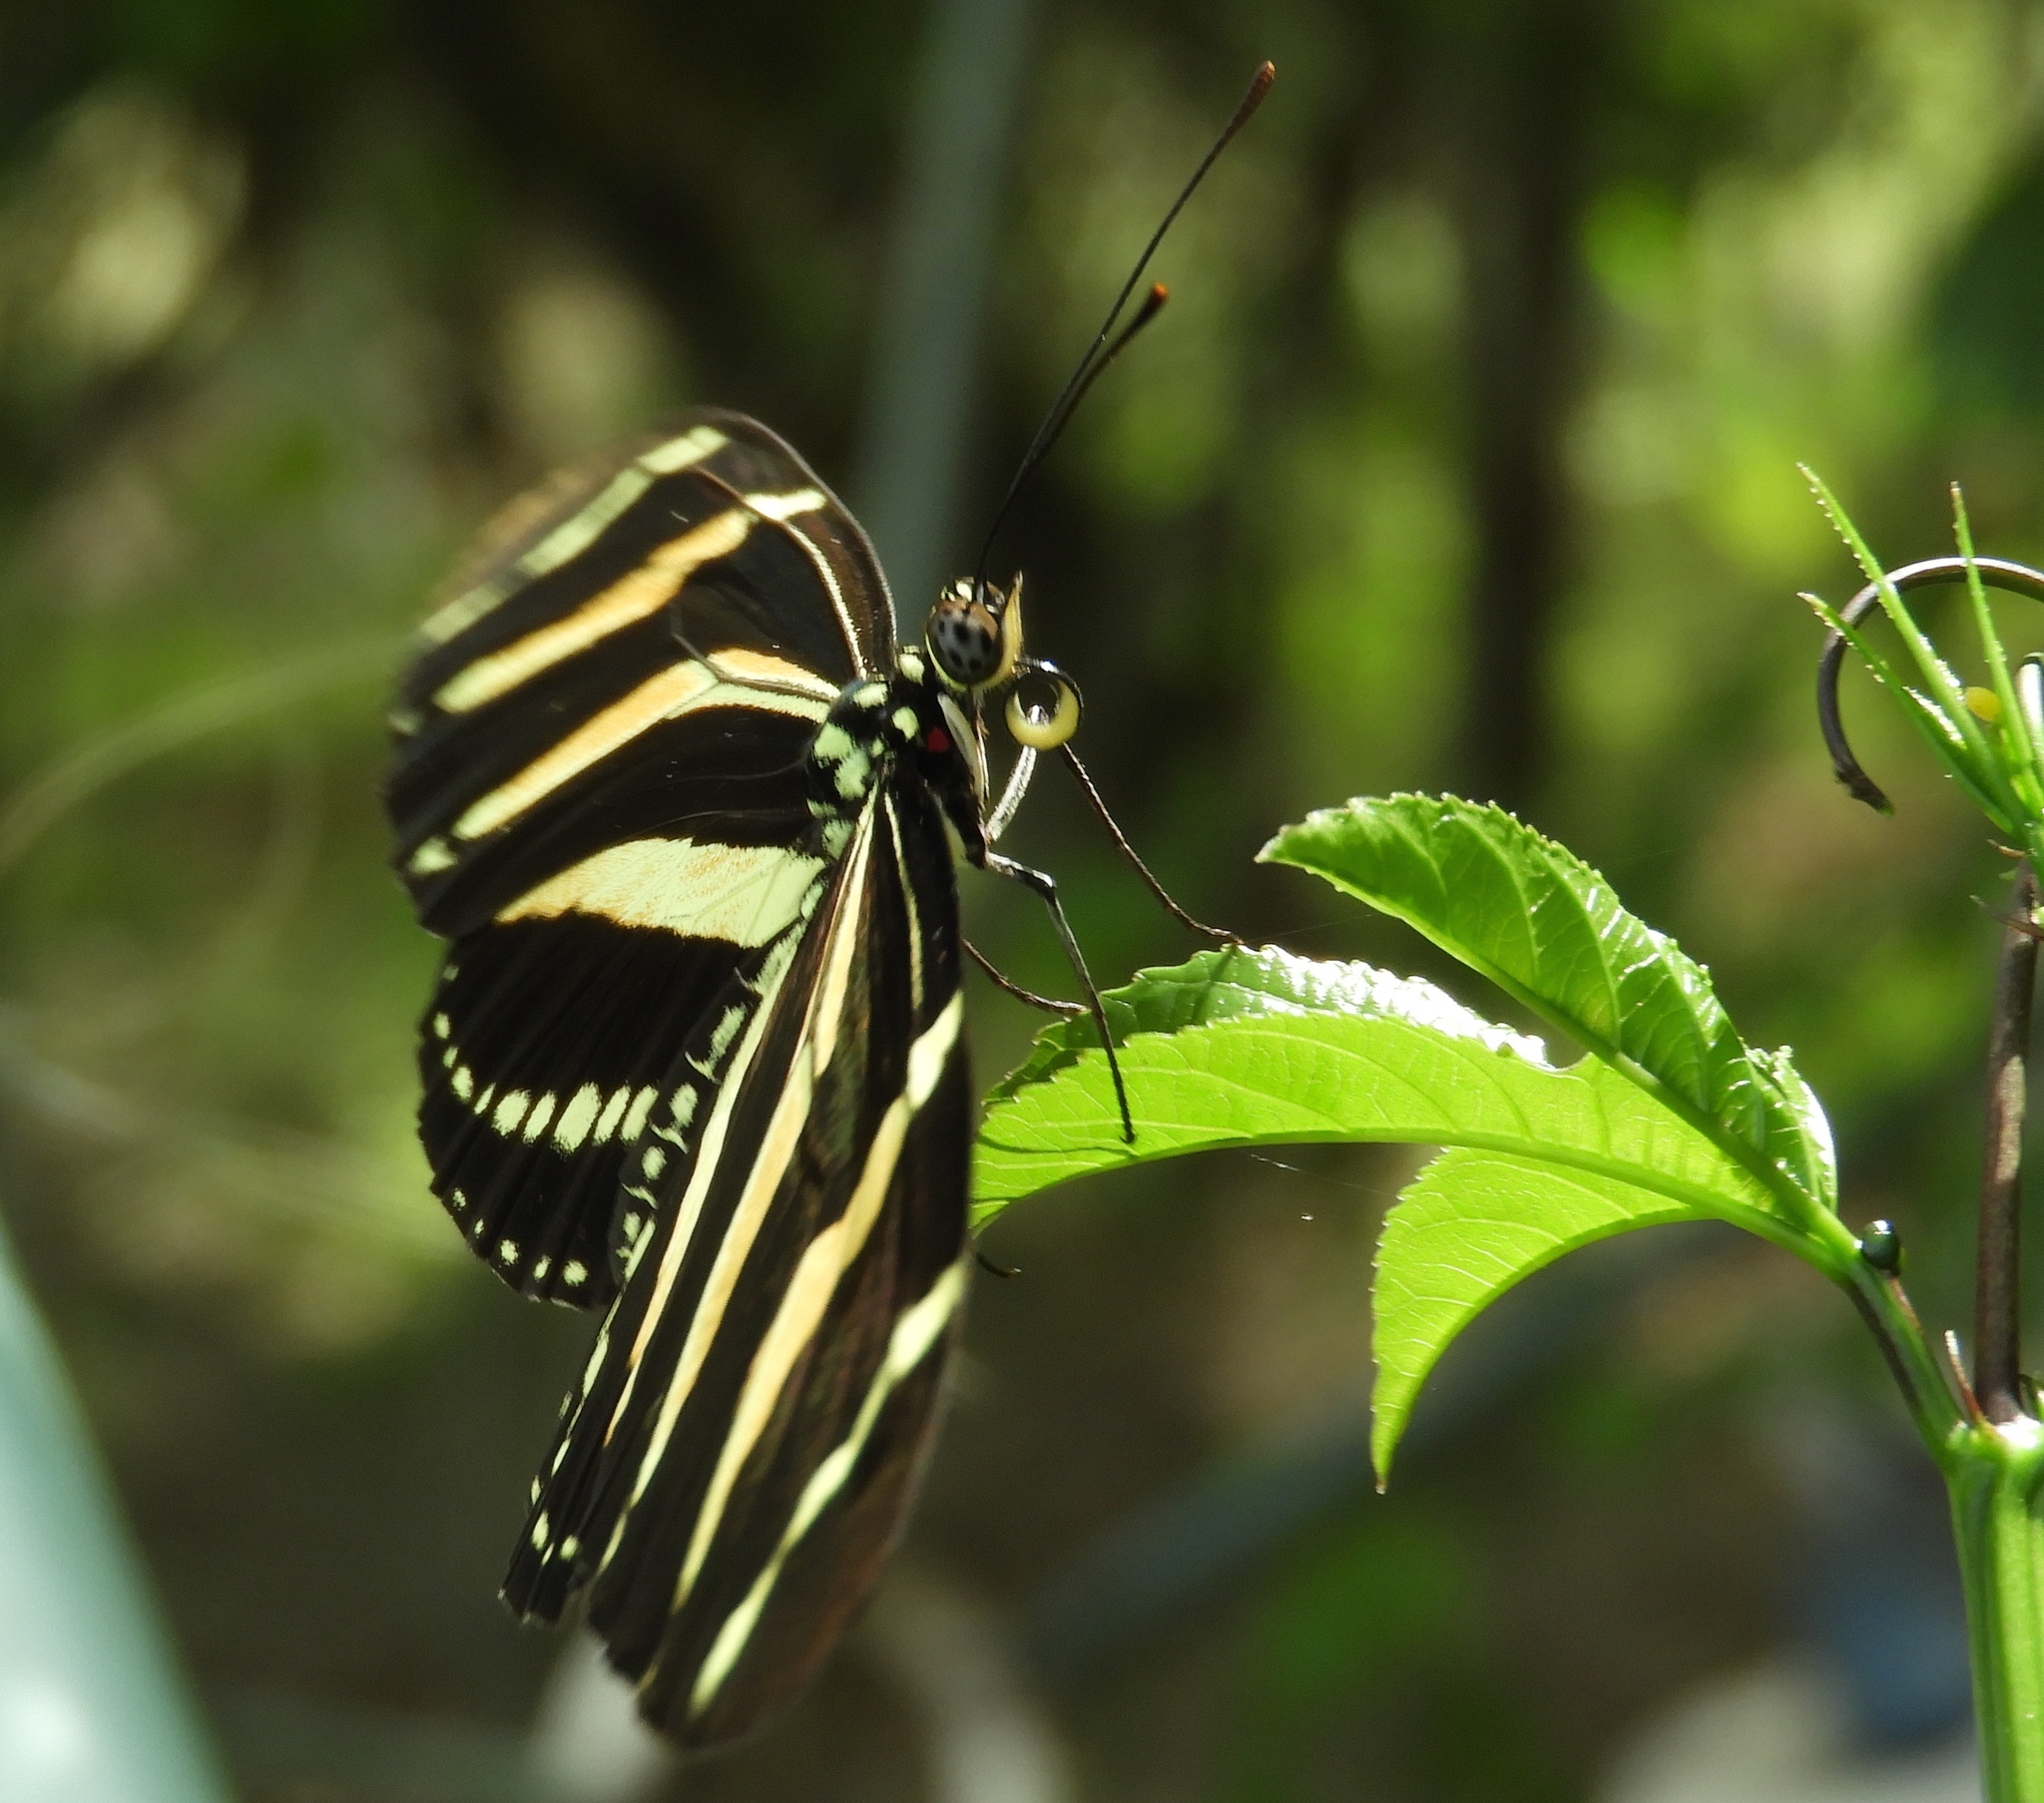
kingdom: Animalia
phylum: Arthropoda
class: Insecta
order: Lepidoptera
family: Nymphalidae
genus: Heliconius
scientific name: Heliconius charithonia
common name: Zebra long wing
